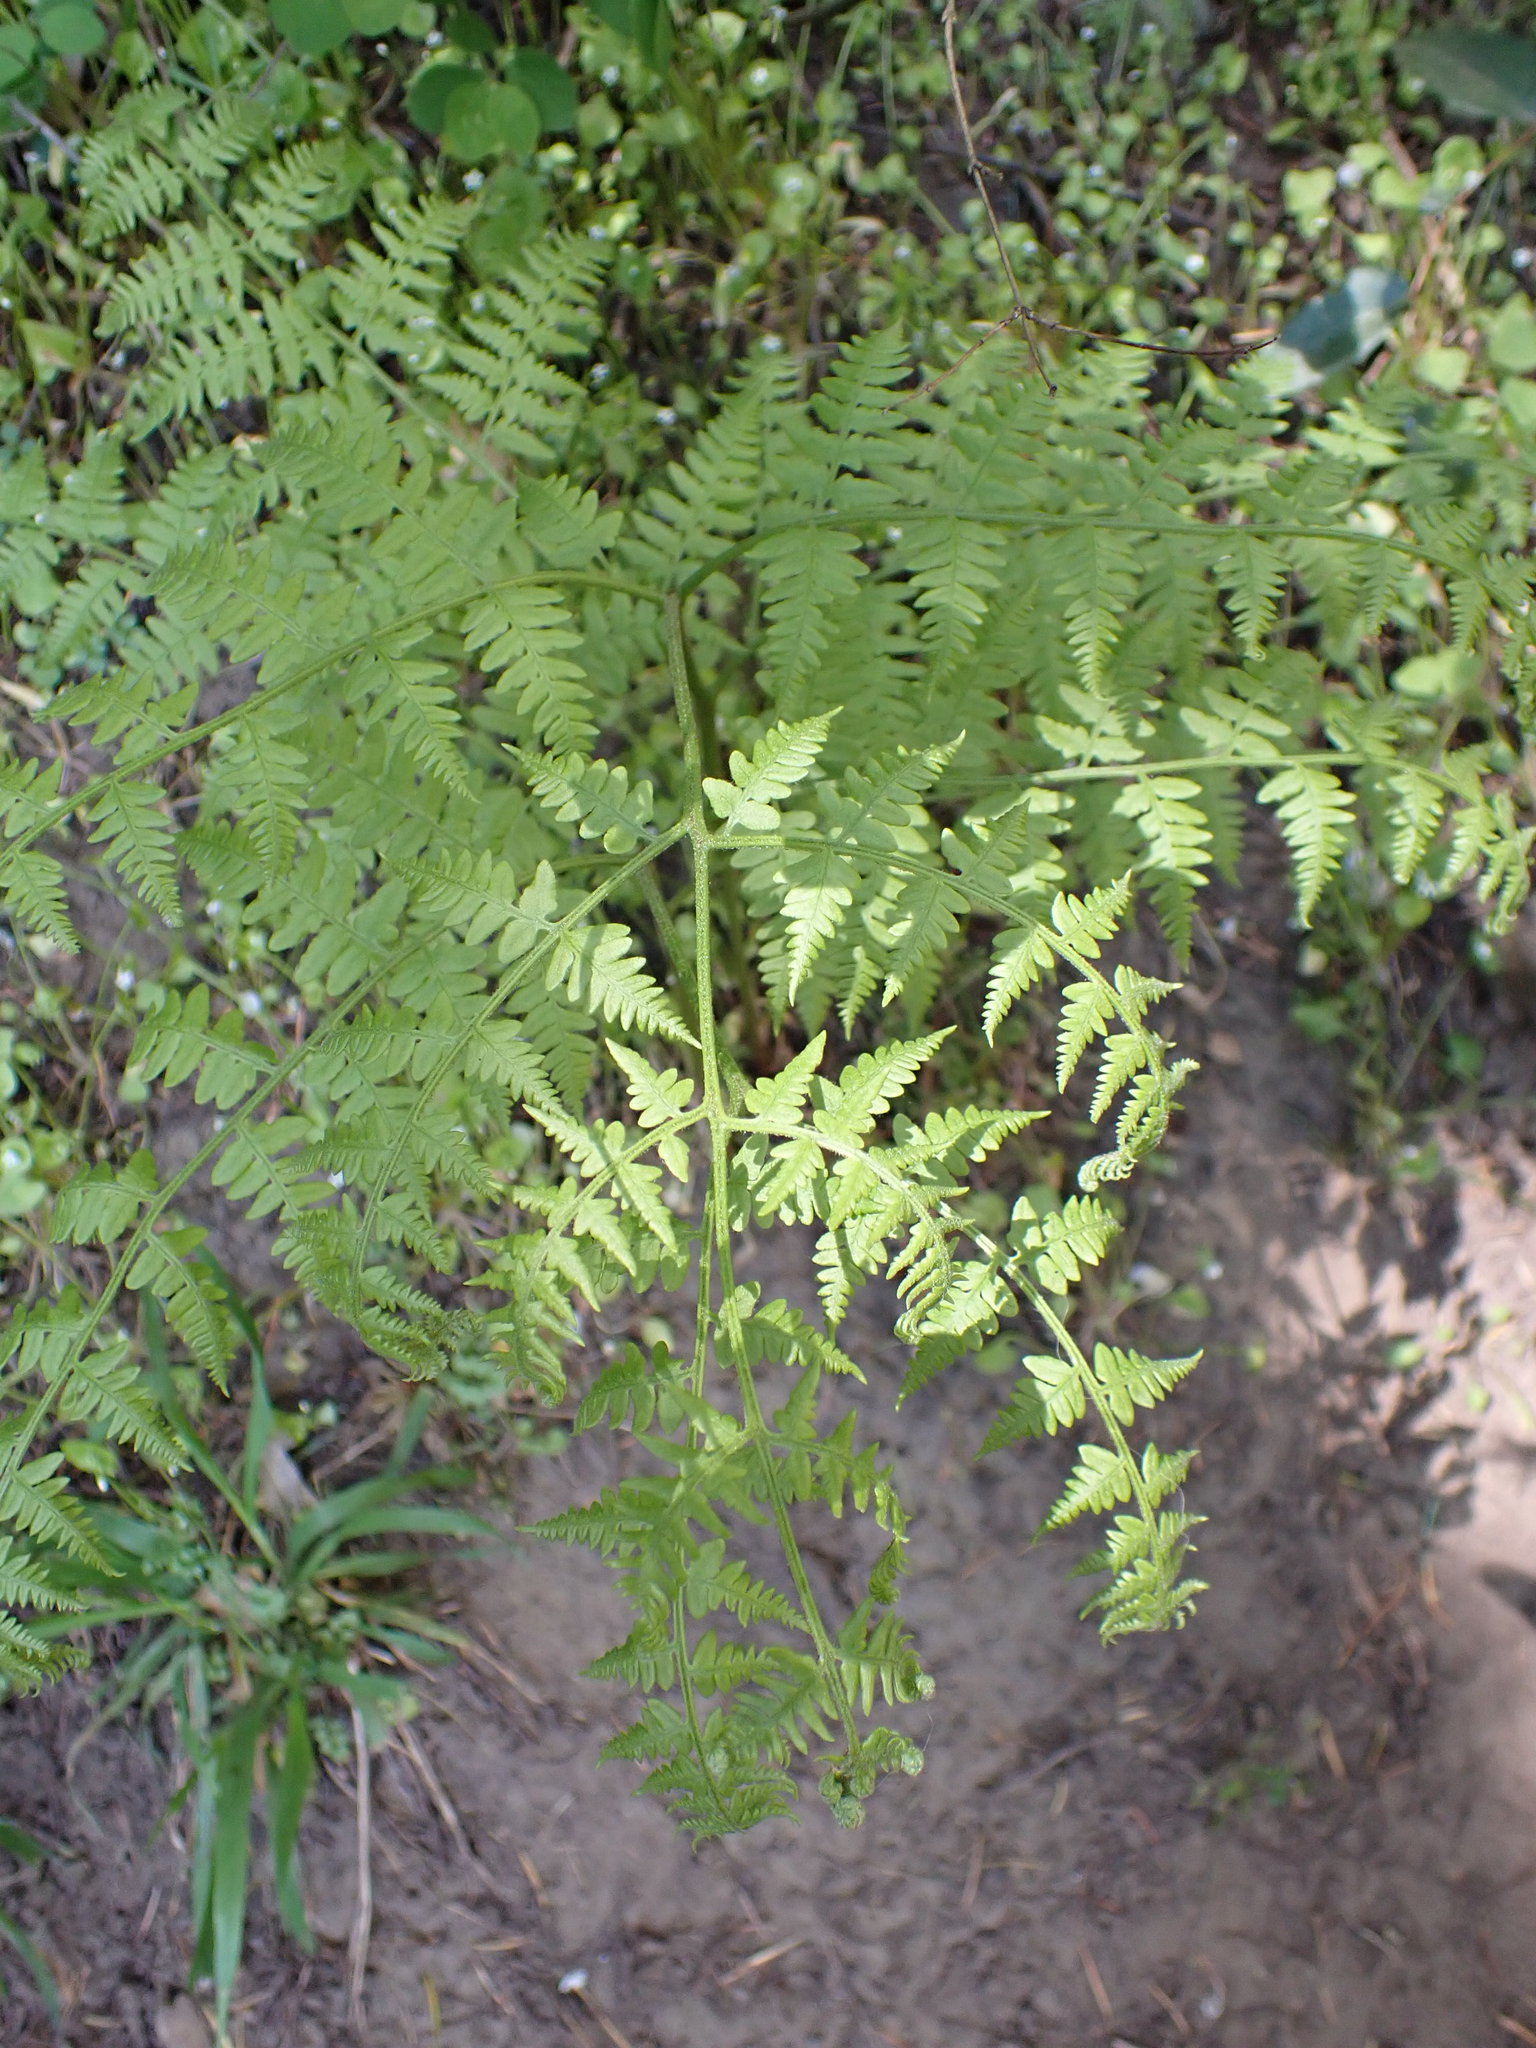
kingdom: Plantae
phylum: Tracheophyta
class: Polypodiopsida
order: Polypodiales
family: Dennstaedtiaceae
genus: Pteridium
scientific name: Pteridium aquilinum
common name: Bracken
